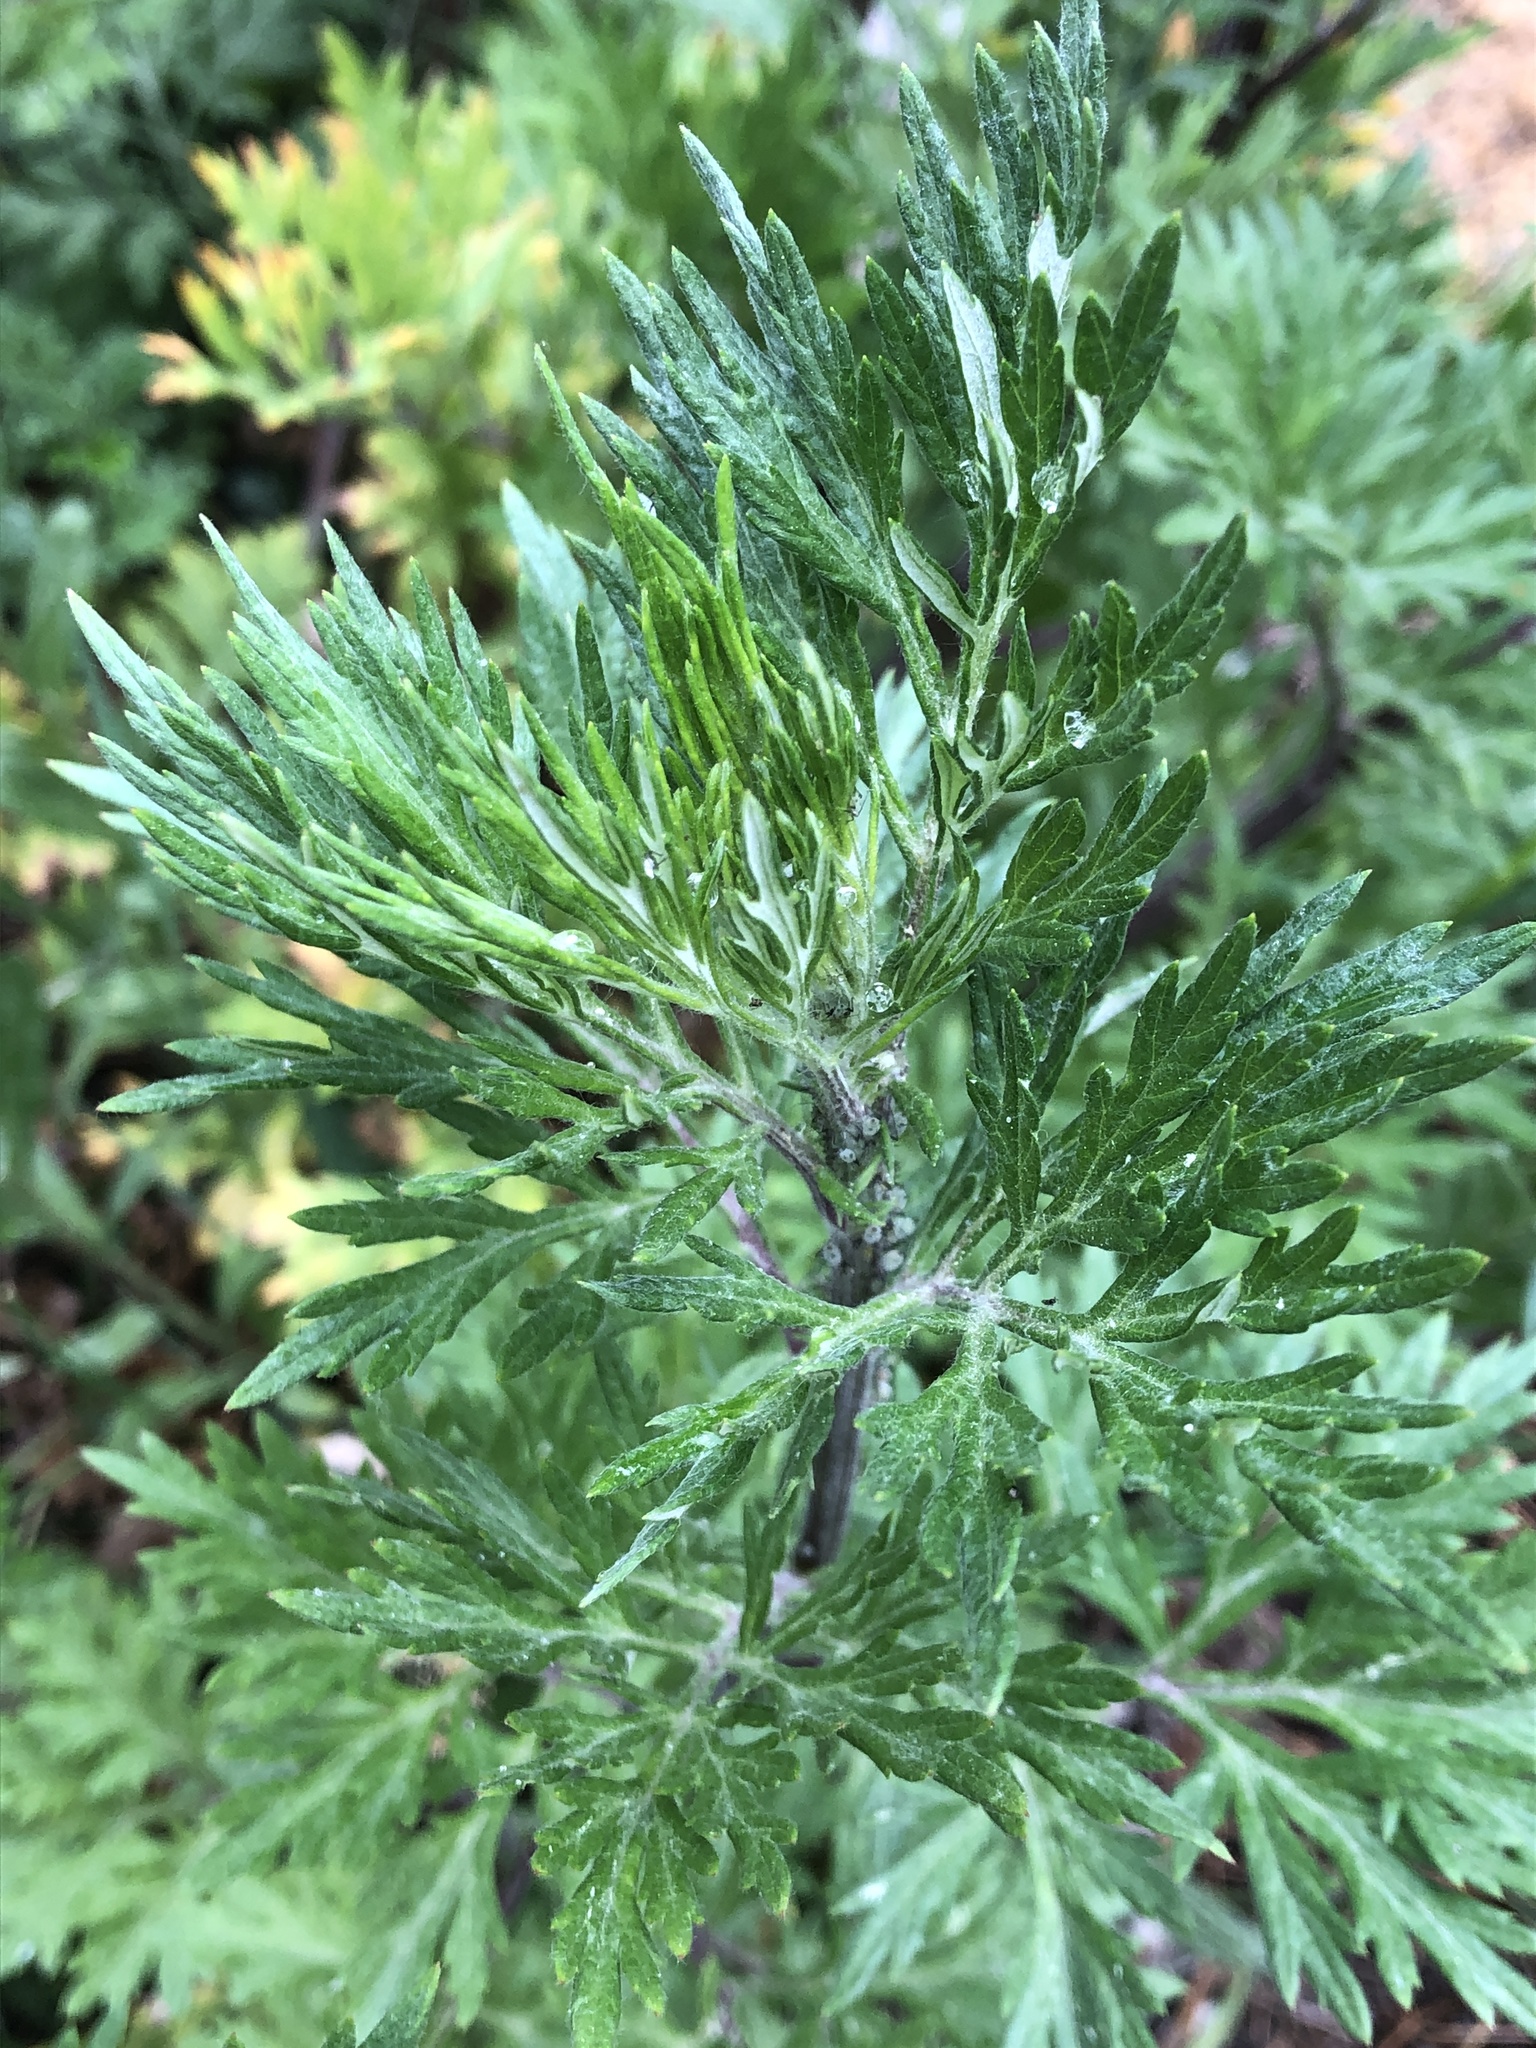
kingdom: Plantae
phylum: Tracheophyta
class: Magnoliopsida
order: Asterales
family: Asteraceae
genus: Artemisia
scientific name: Artemisia vulgaris
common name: Mugwort
